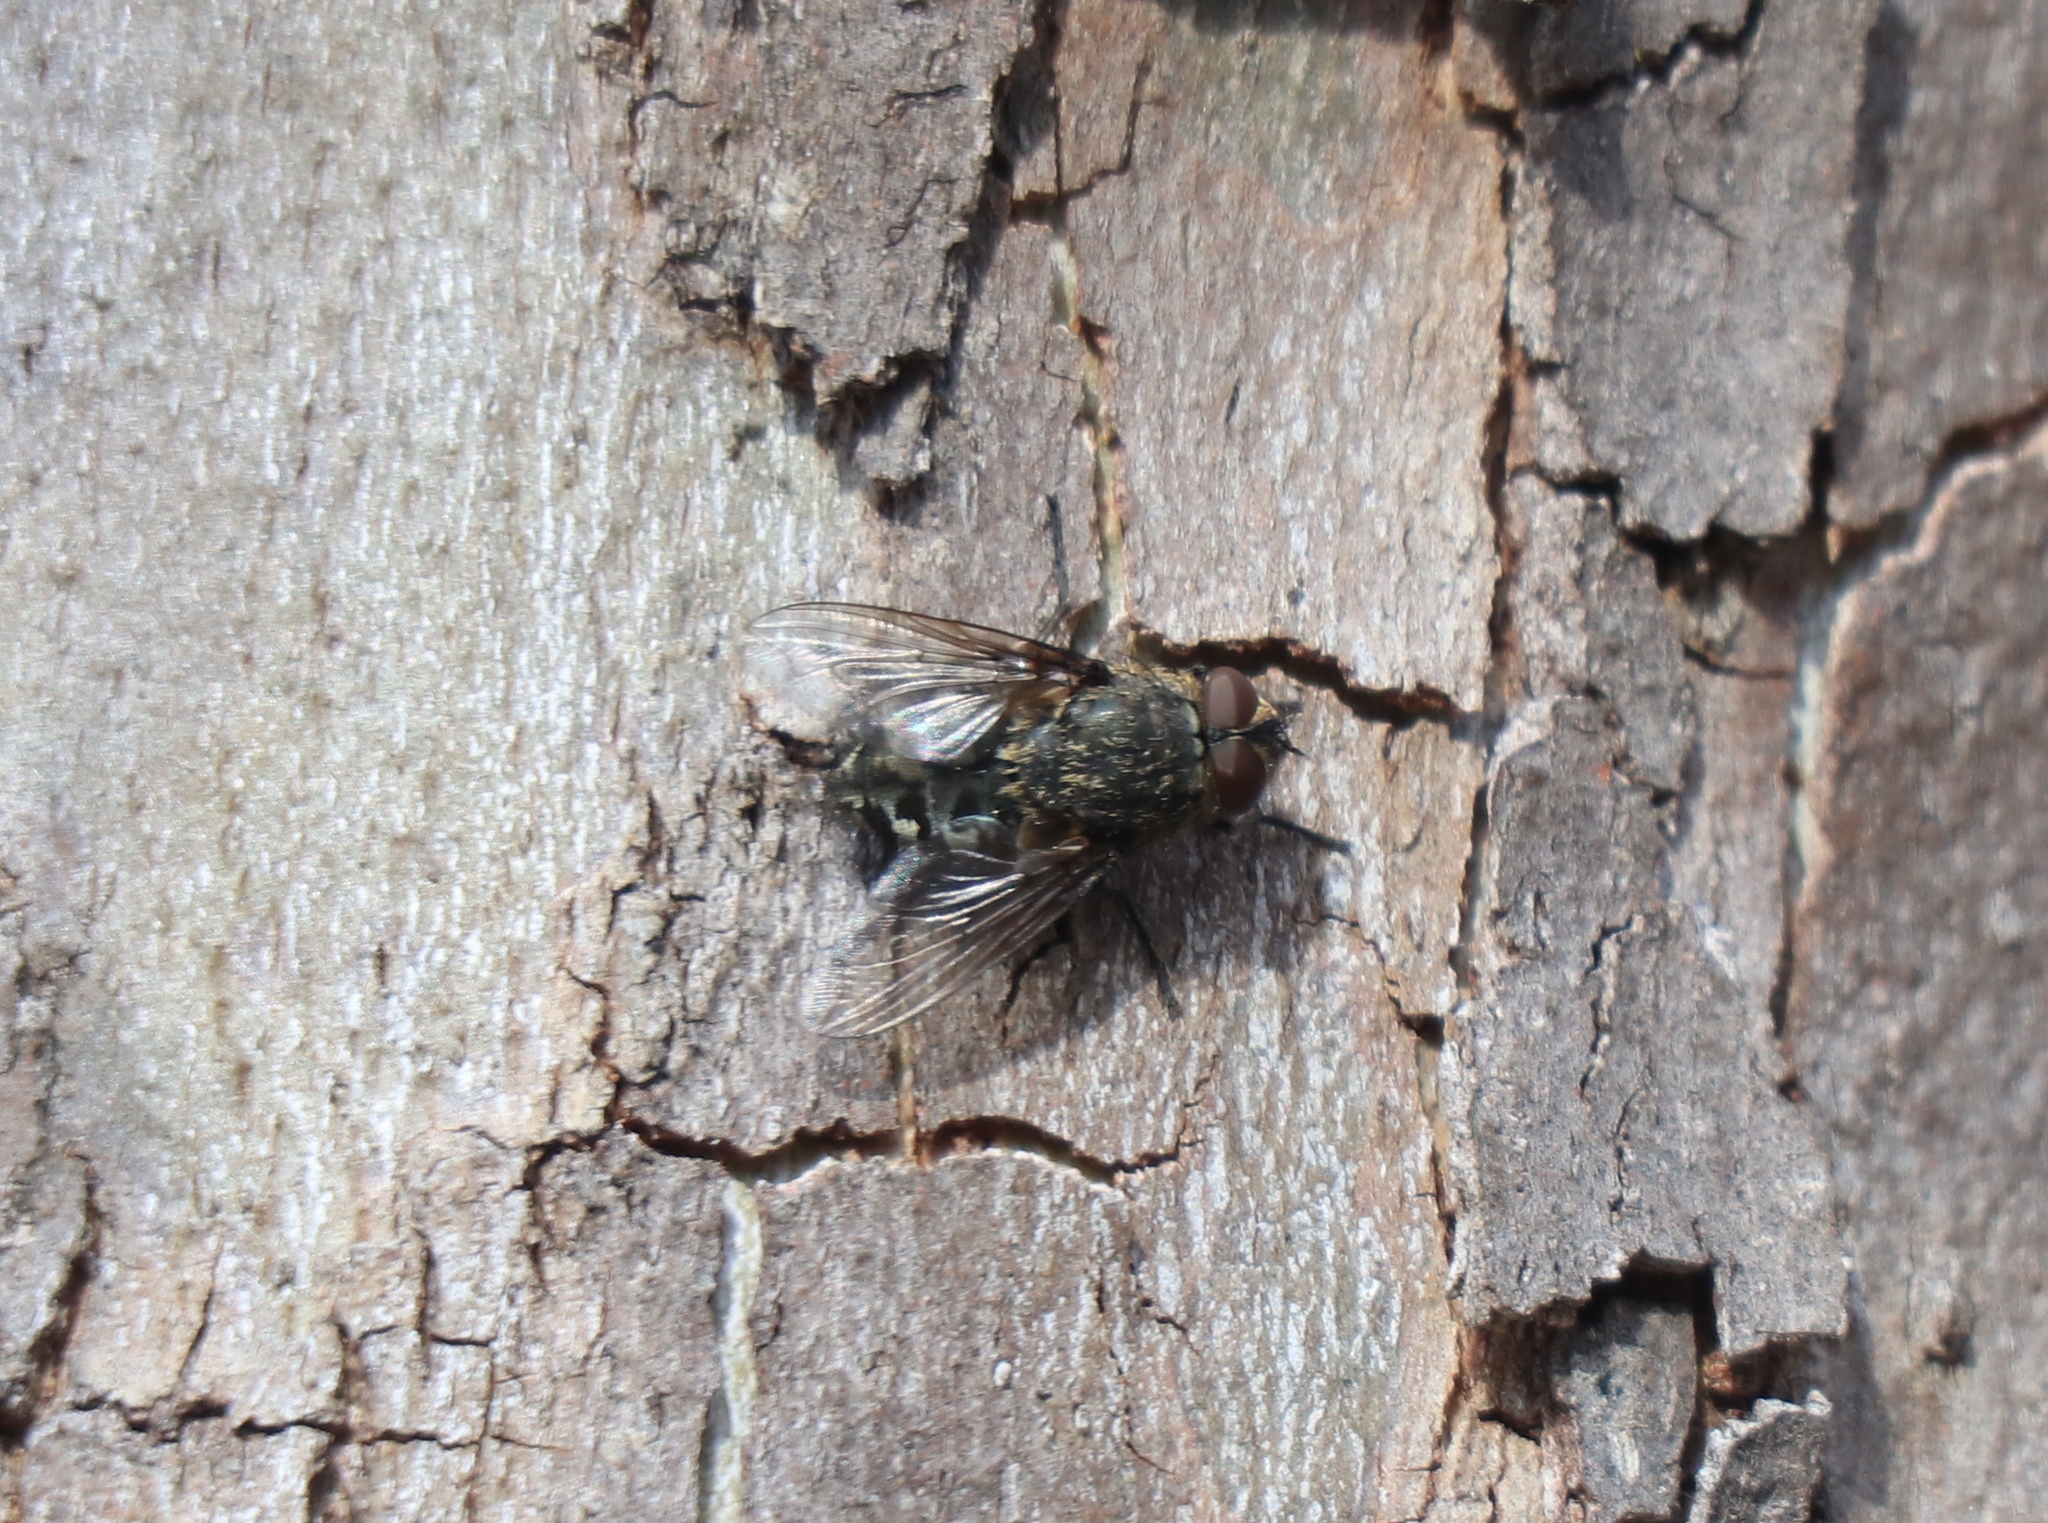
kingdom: Animalia
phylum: Arthropoda
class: Insecta
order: Diptera
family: Polleniidae
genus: Pollenia
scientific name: Pollenia
